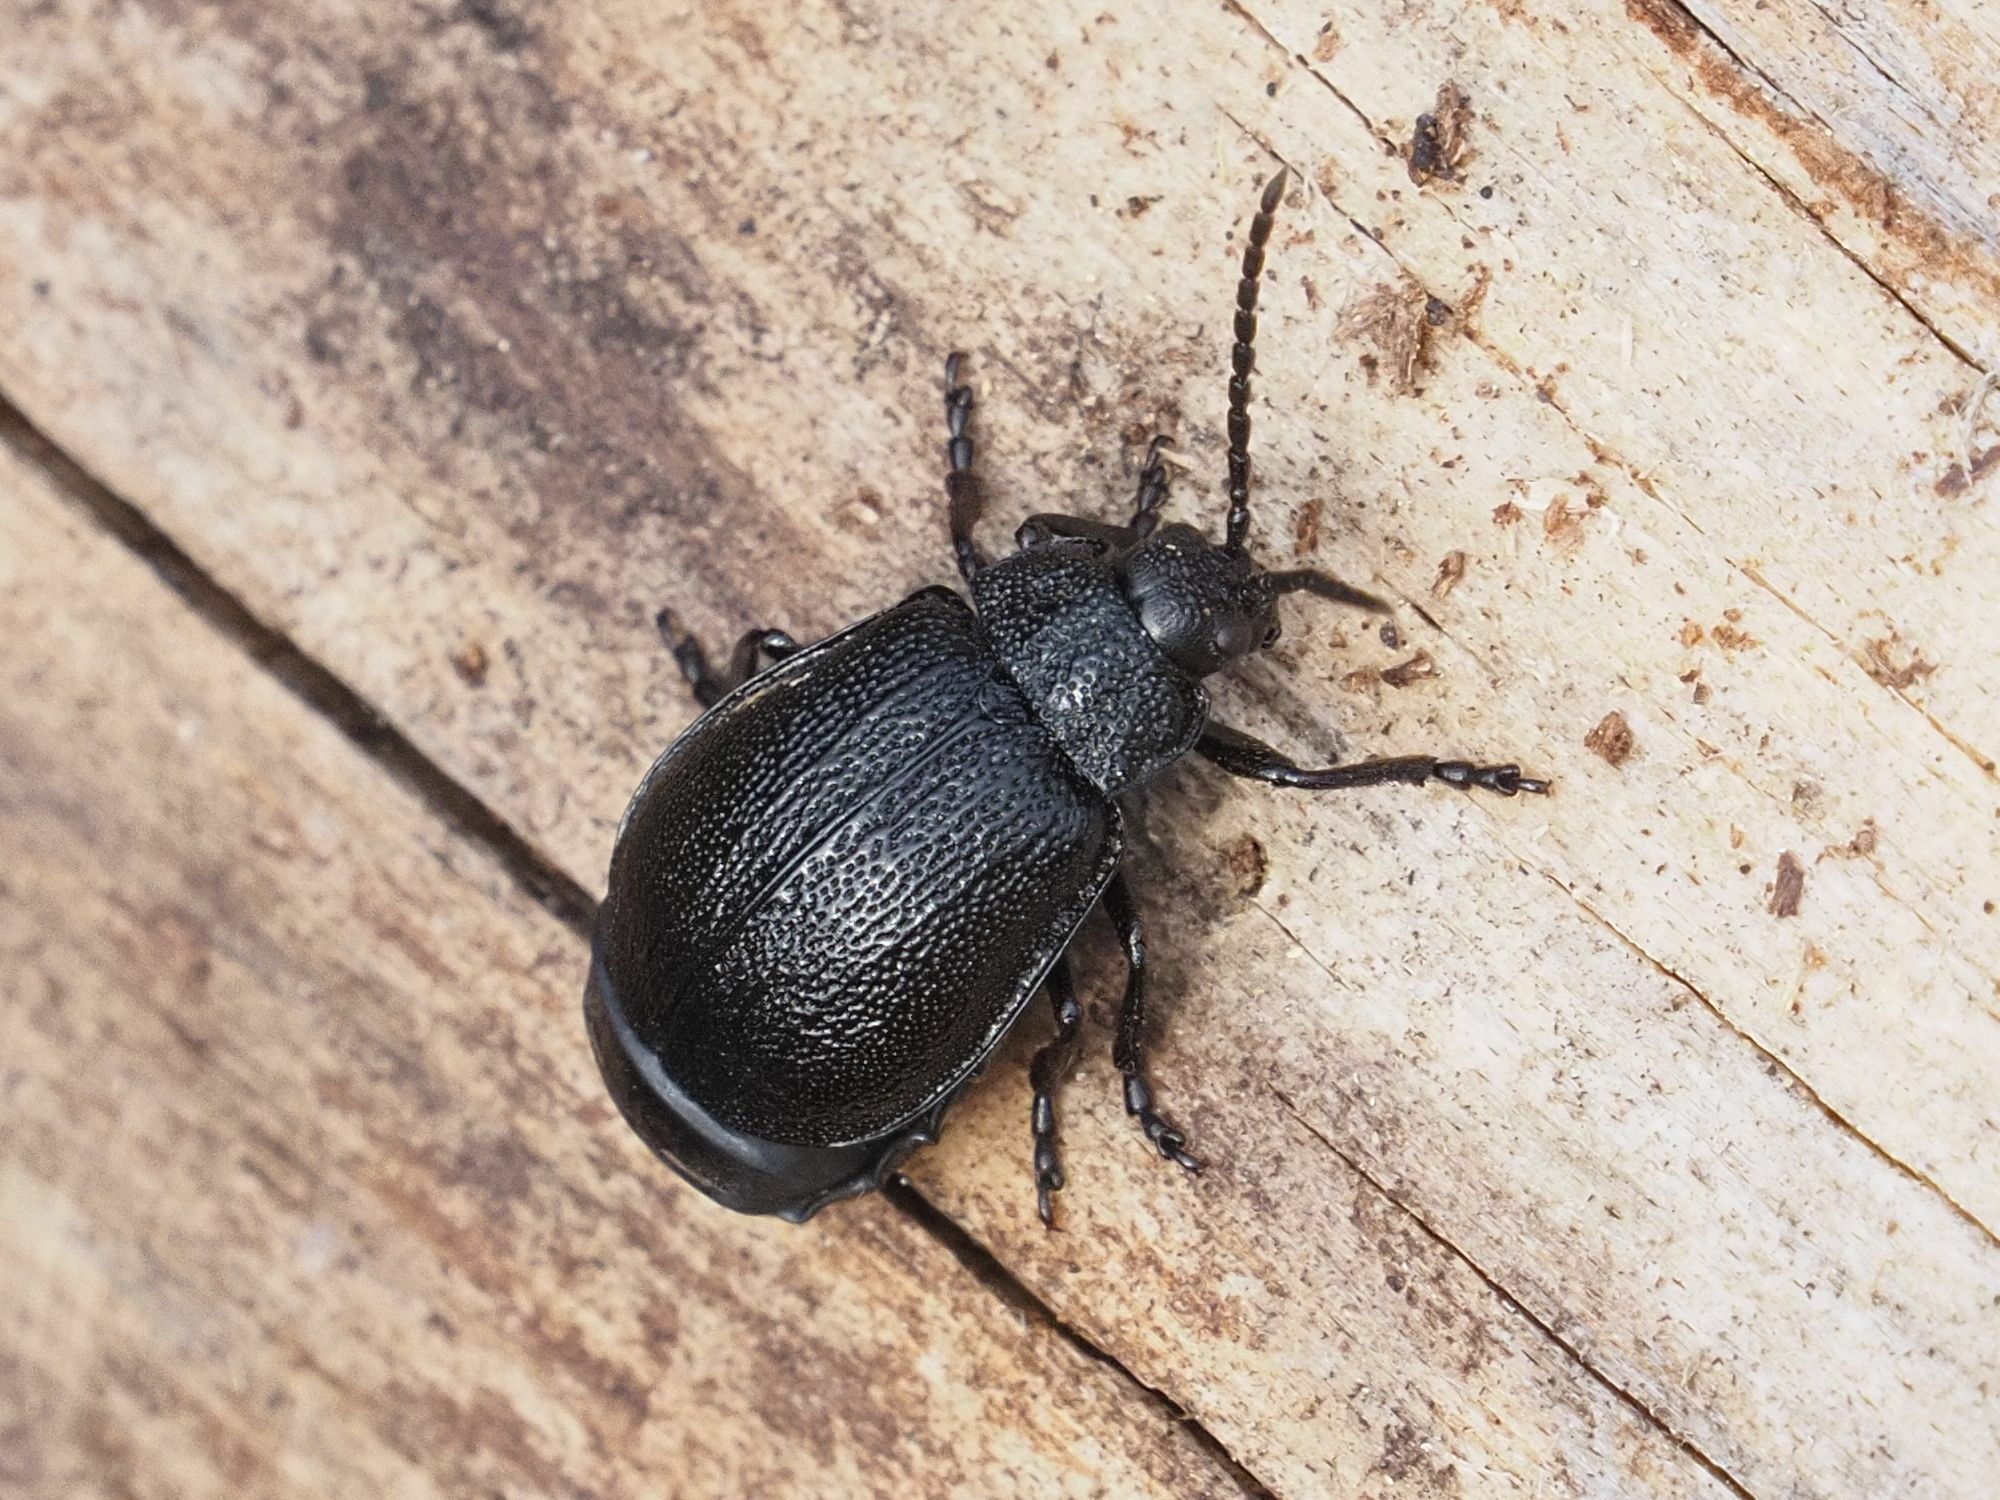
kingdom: Animalia
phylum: Arthropoda
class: Insecta
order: Coleoptera
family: Chrysomelidae
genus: Galeruca
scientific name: Galeruca tanaceti
